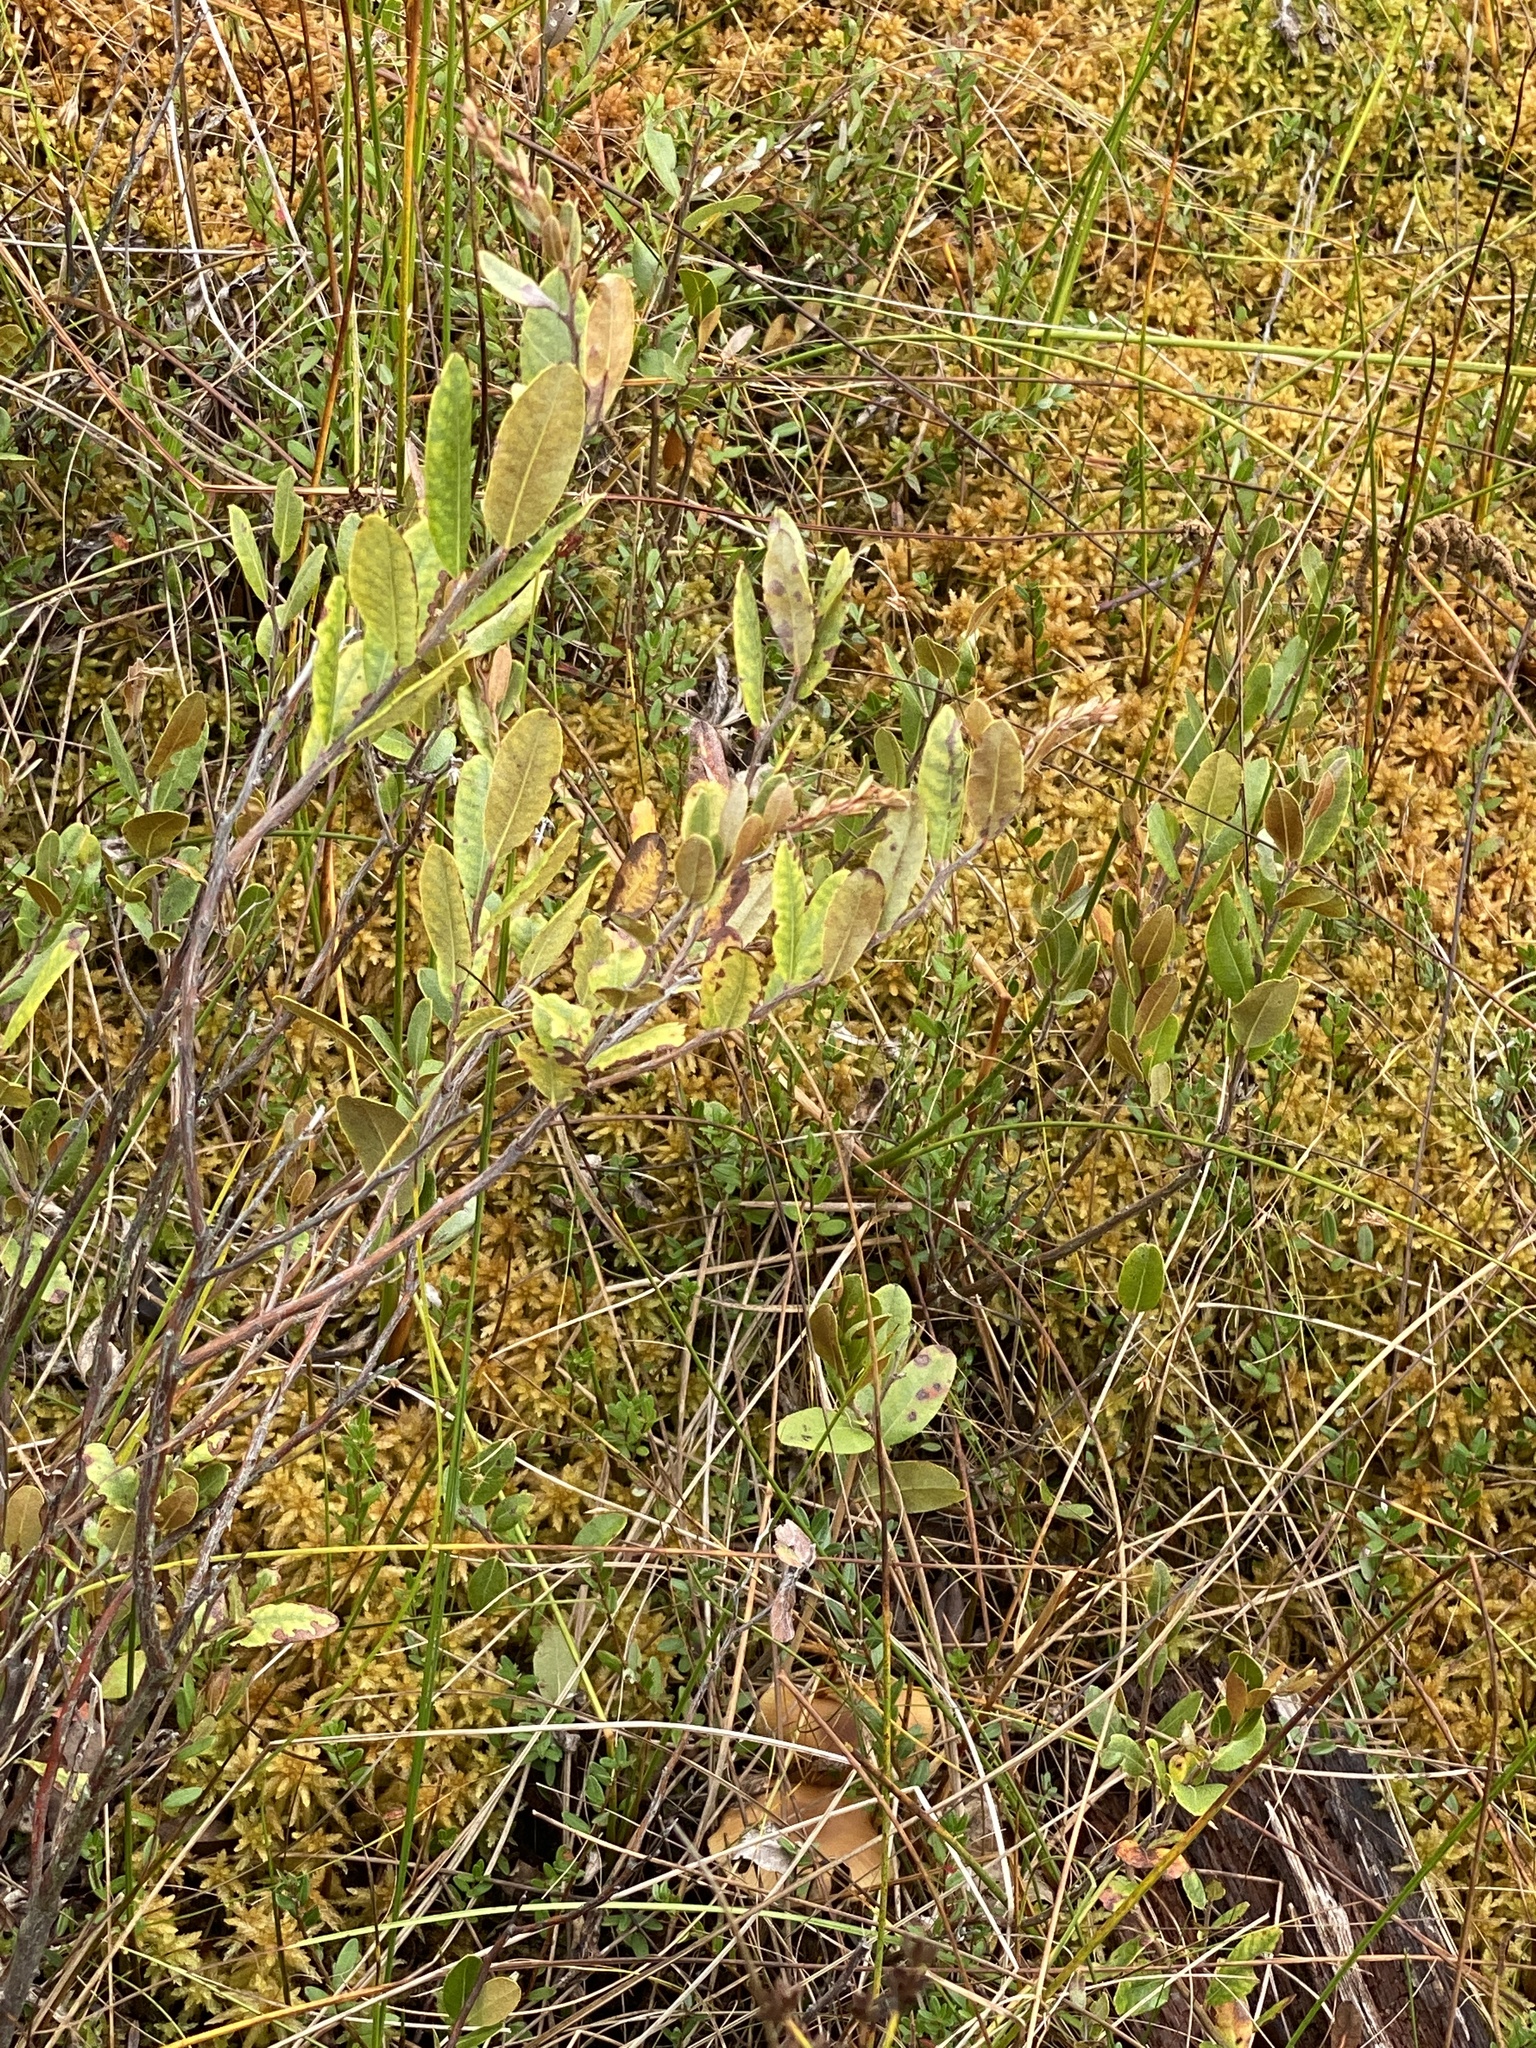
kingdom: Plantae
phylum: Tracheophyta
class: Magnoliopsida
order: Ericales
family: Ericaceae
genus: Chamaedaphne
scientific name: Chamaedaphne calyculata
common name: Leatherleaf
